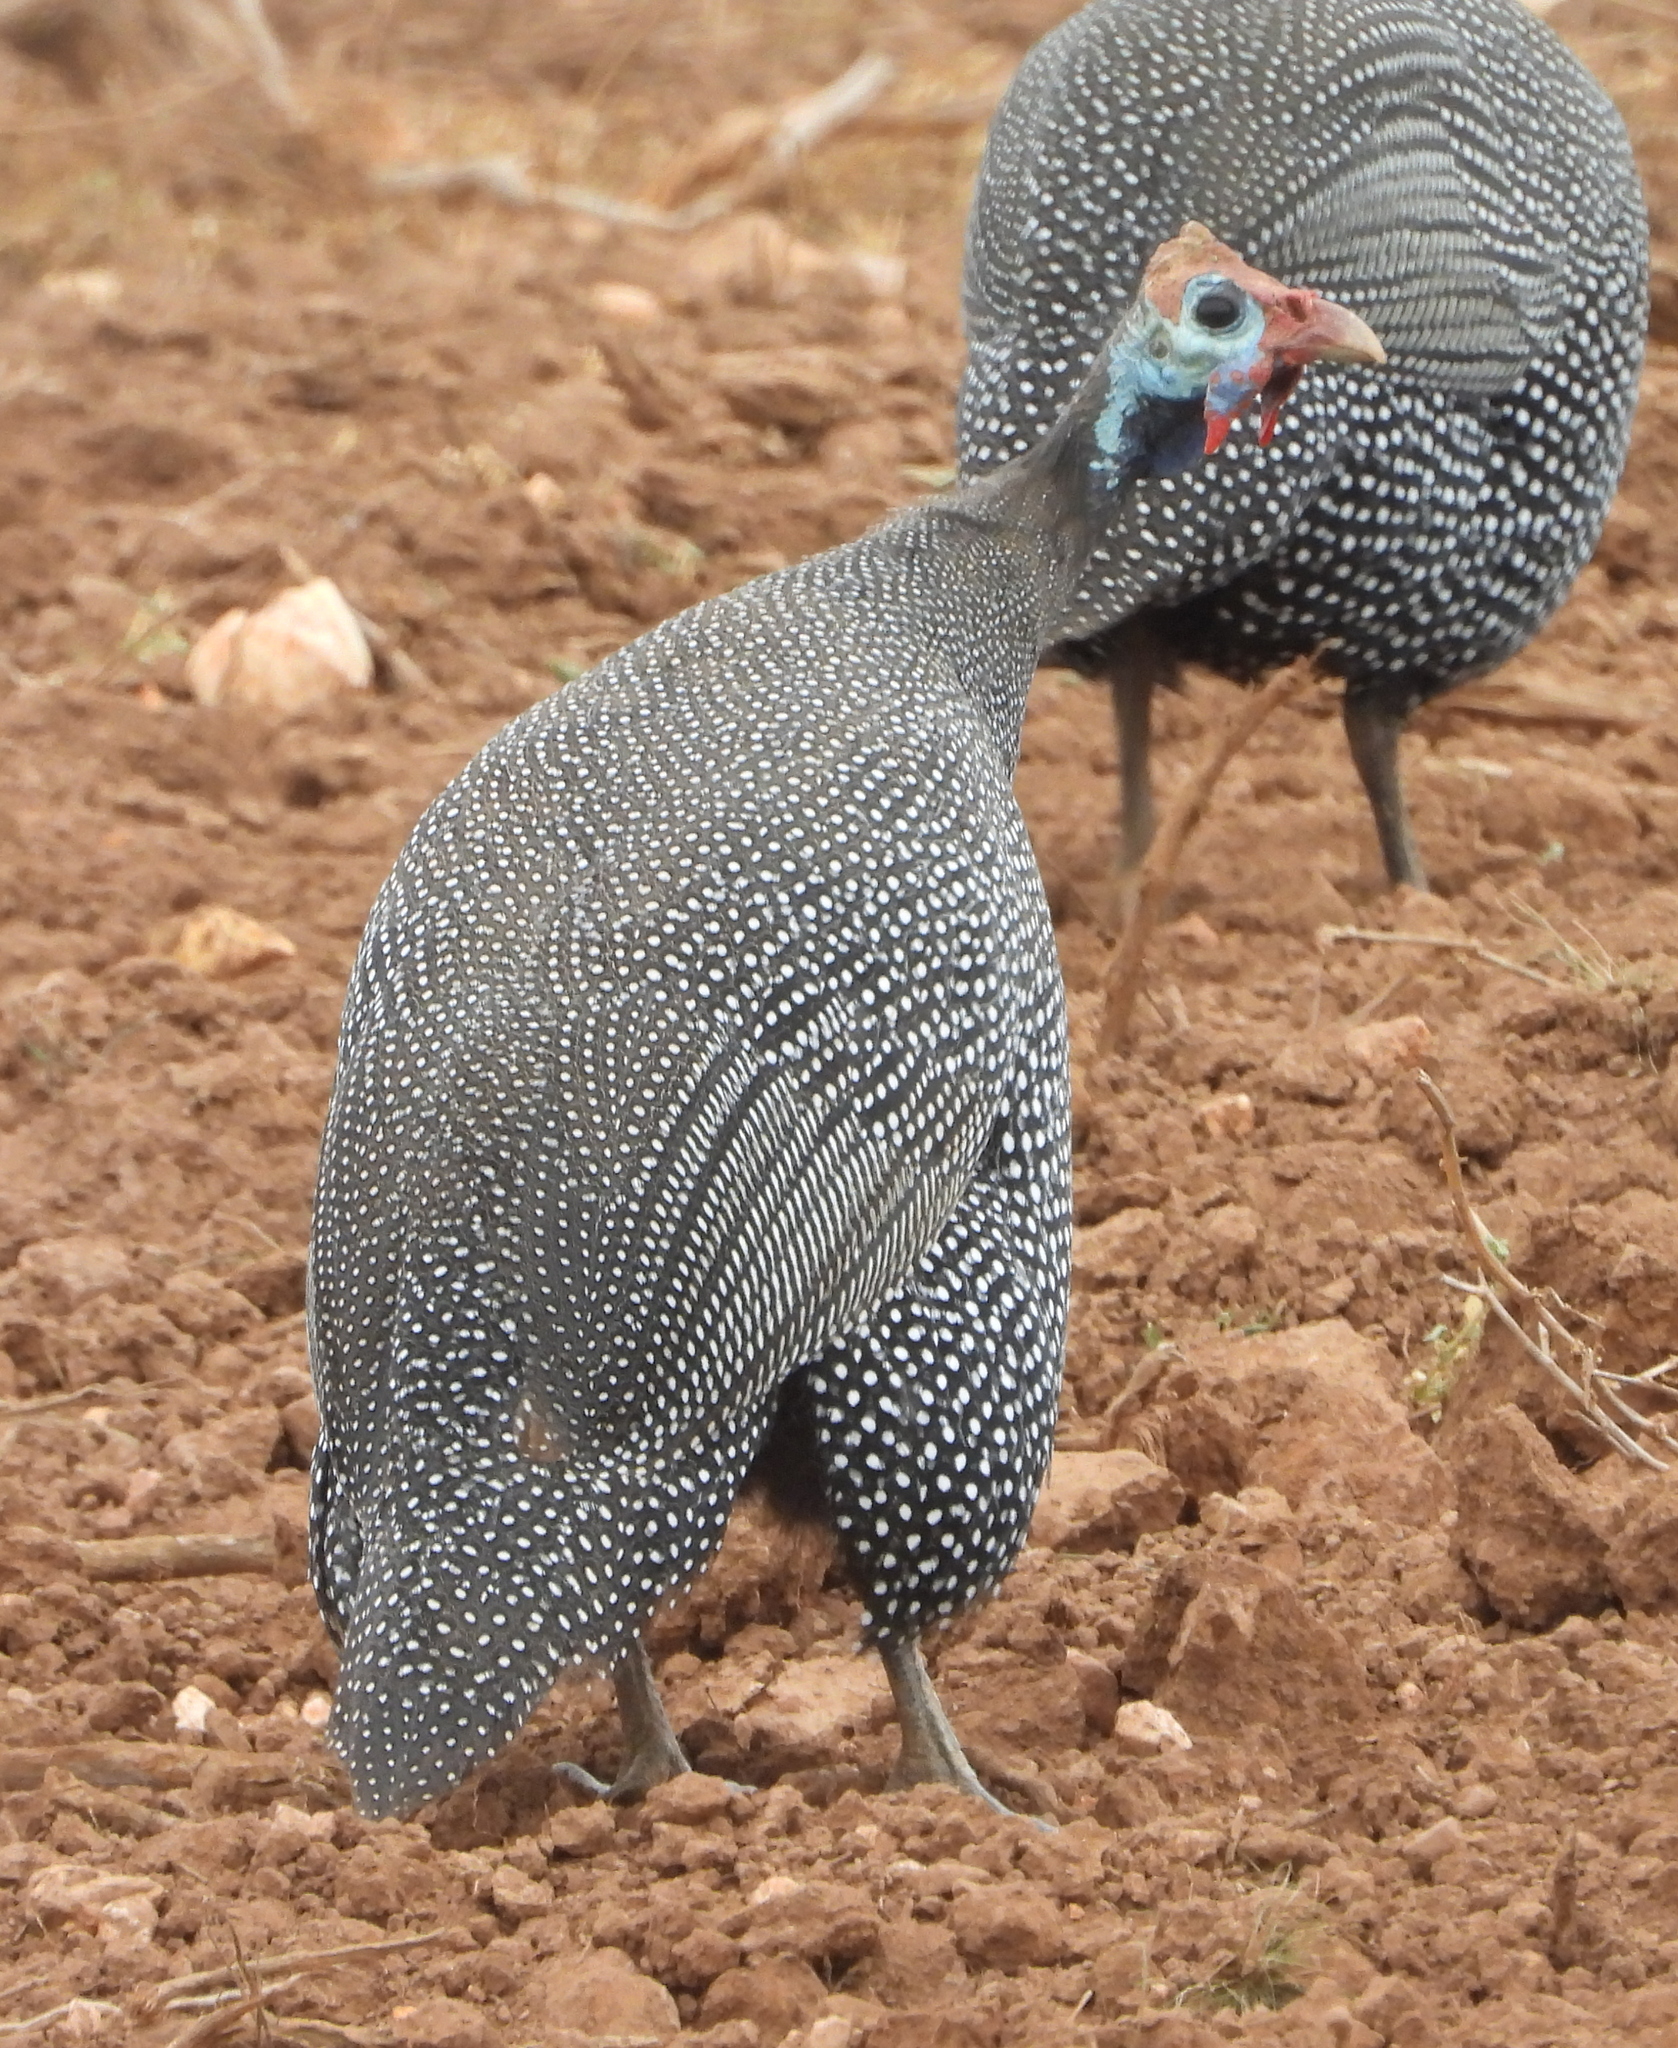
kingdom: Animalia
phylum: Chordata
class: Aves
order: Galliformes
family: Numididae
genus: Numida
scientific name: Numida meleagris
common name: Helmeted guineafowl
